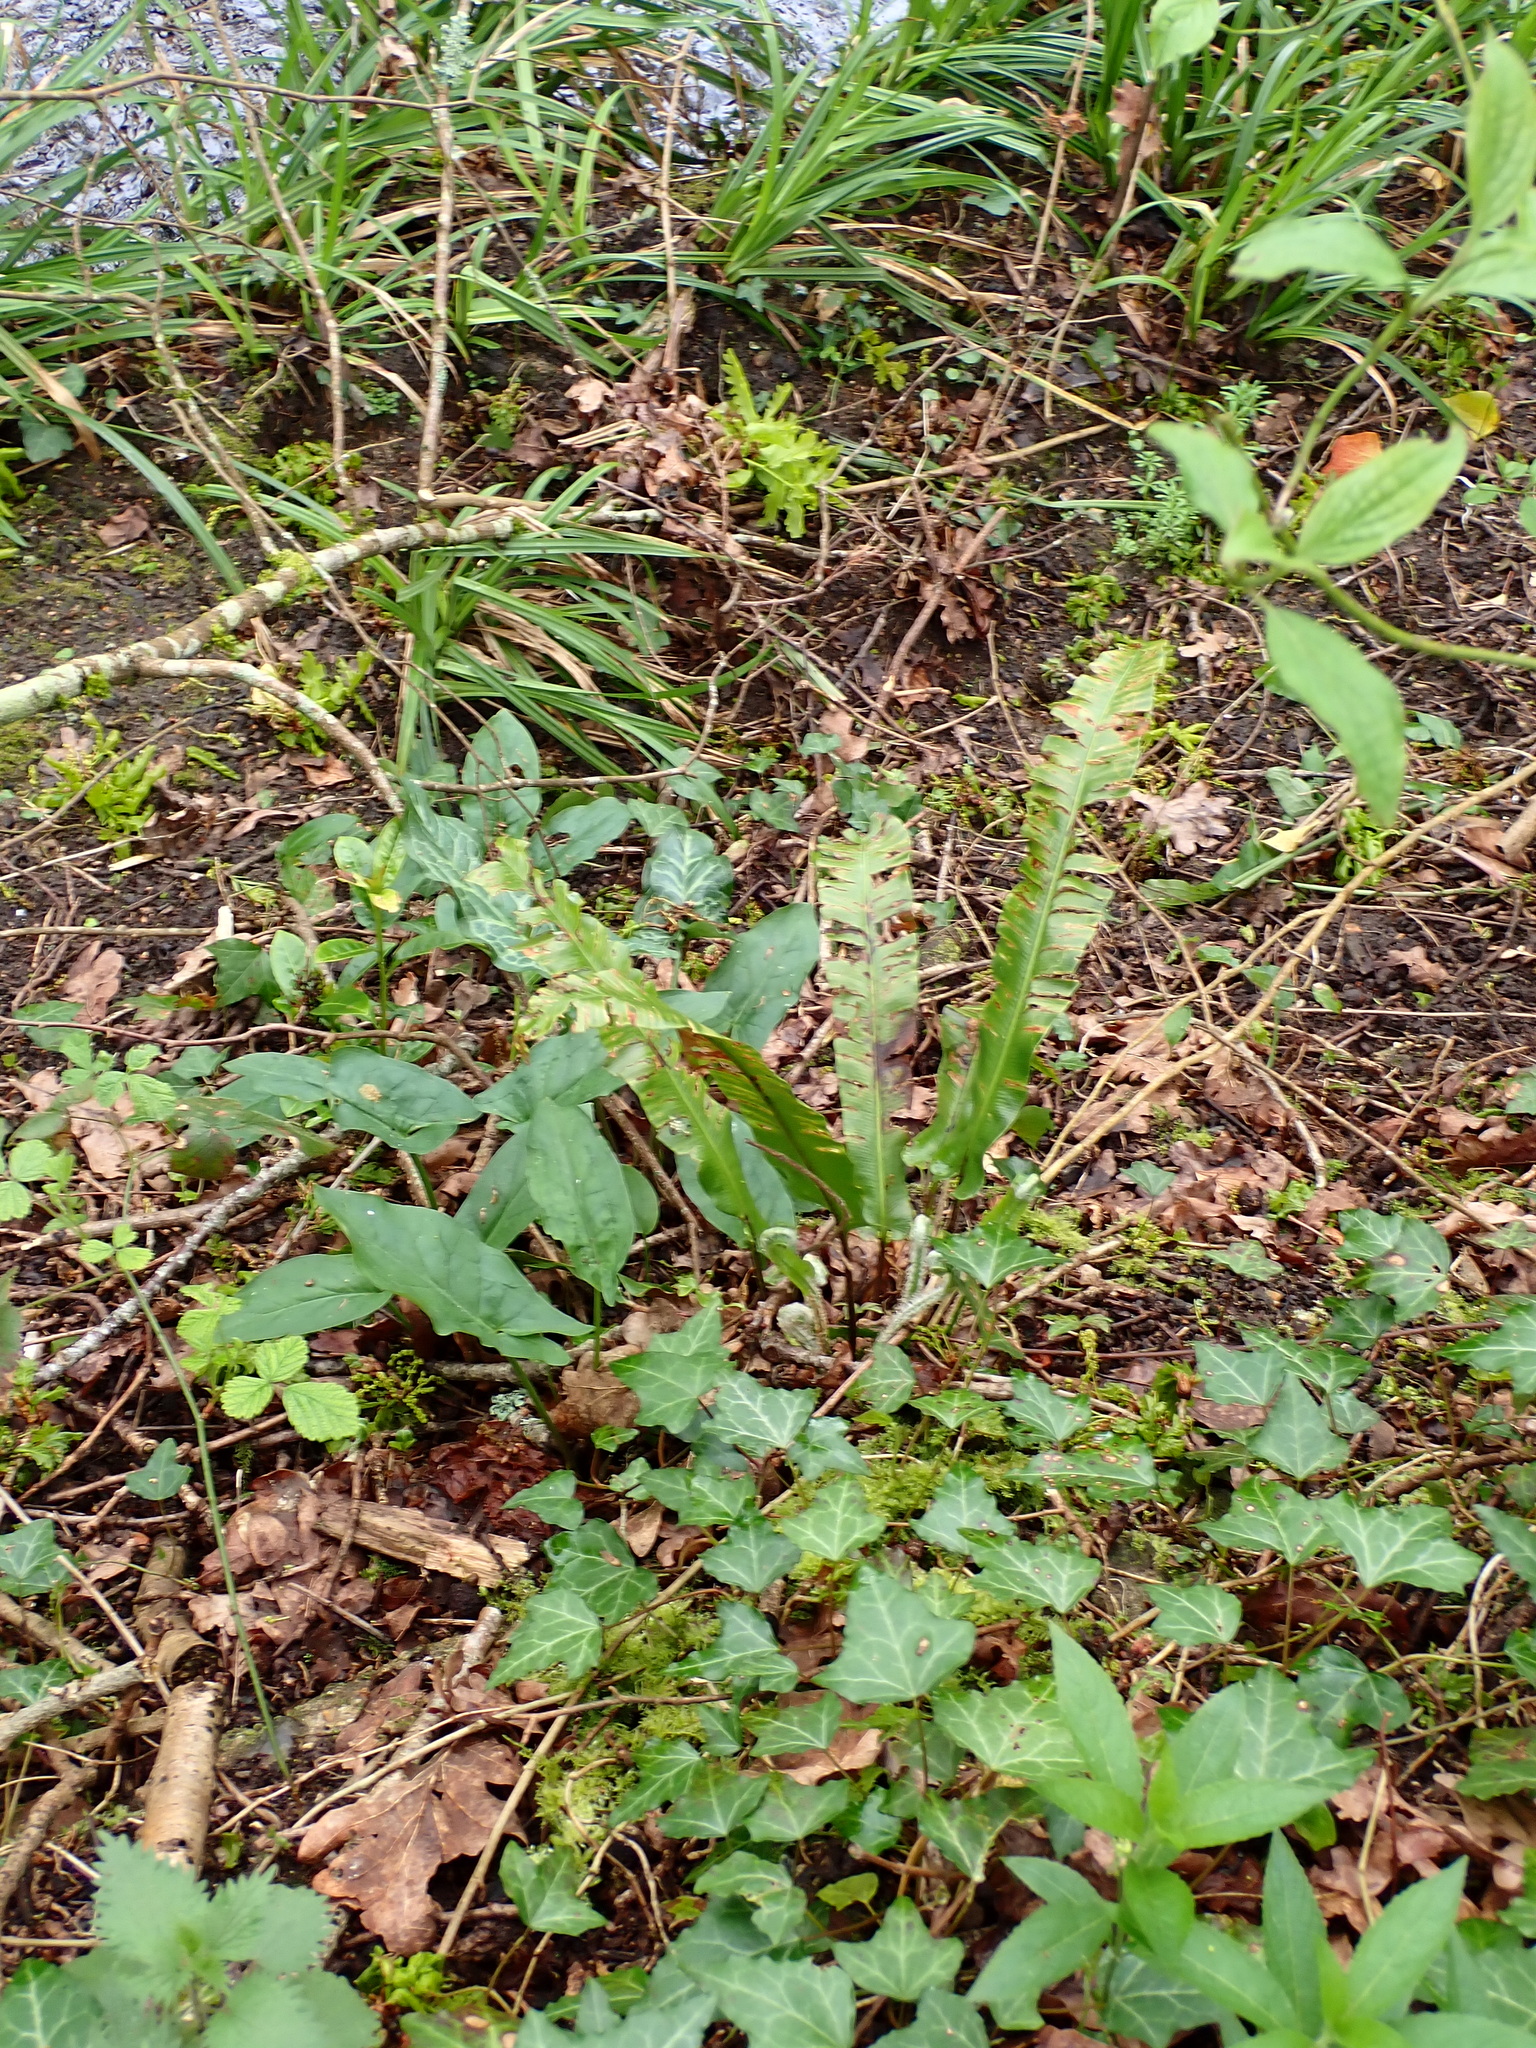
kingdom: Plantae
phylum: Tracheophyta
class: Polypodiopsida
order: Polypodiales
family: Aspleniaceae
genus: Asplenium
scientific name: Asplenium scolopendrium
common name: Hart's-tongue fern
